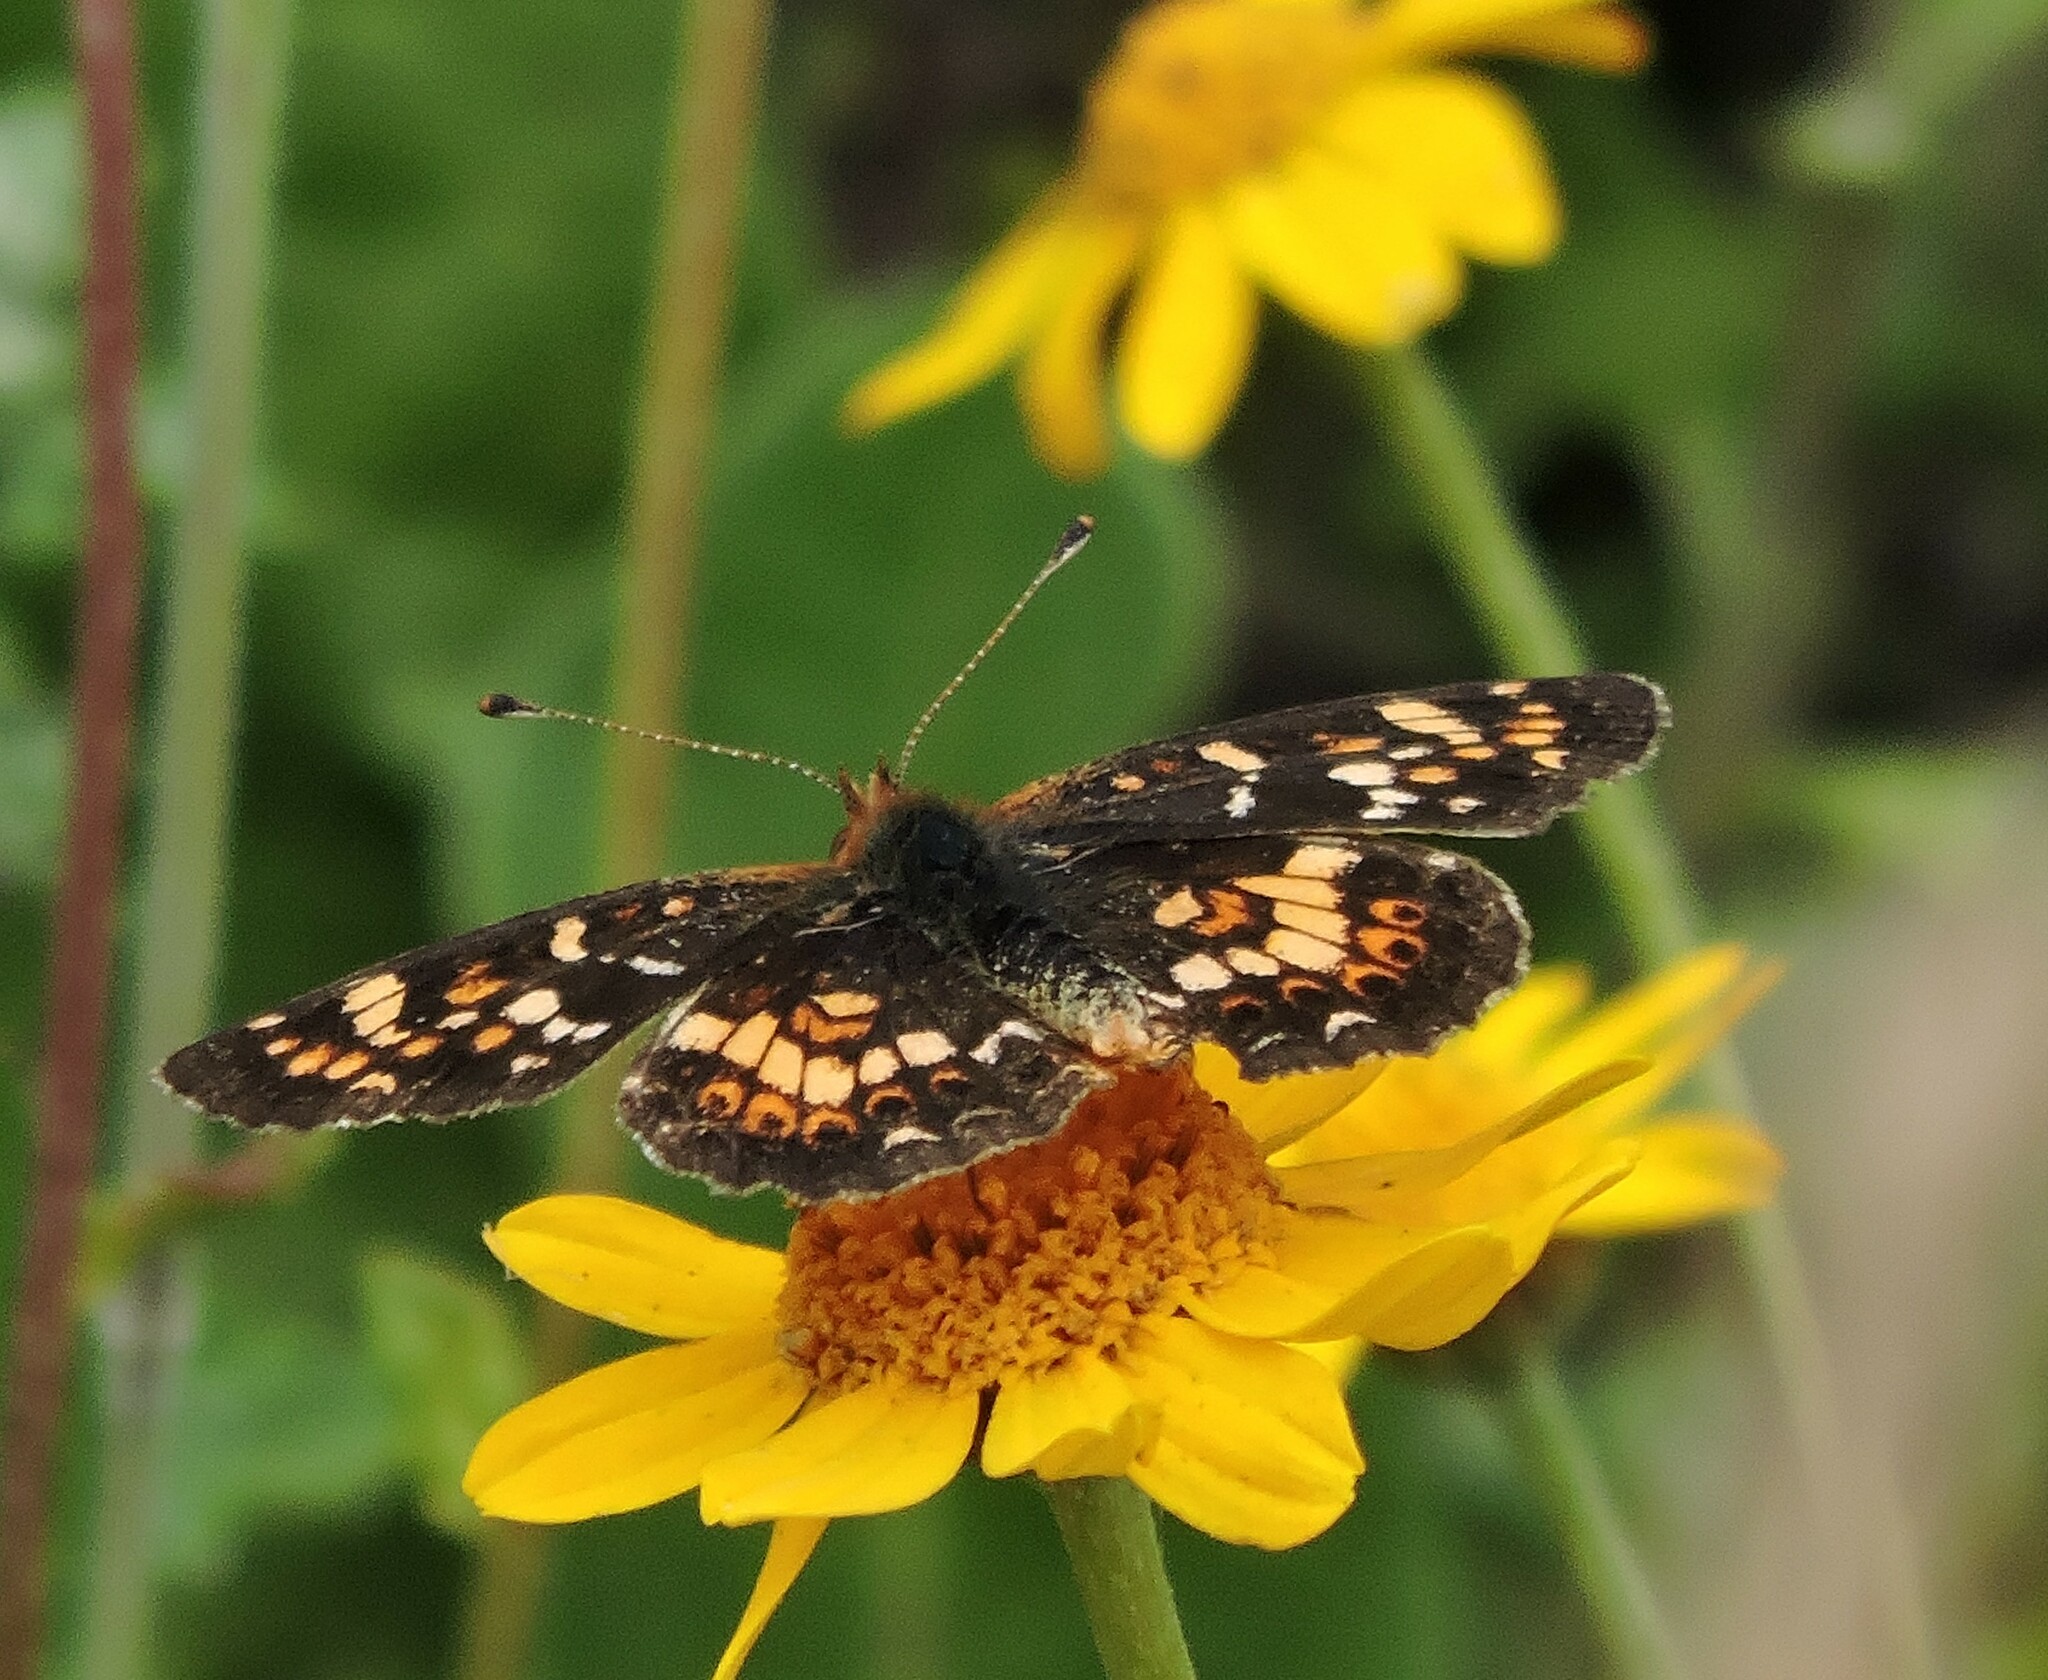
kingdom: Animalia
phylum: Arthropoda
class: Insecta
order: Lepidoptera
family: Nymphalidae
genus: Phyciodes
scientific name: Phyciodes tharos
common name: Pearl crescent
